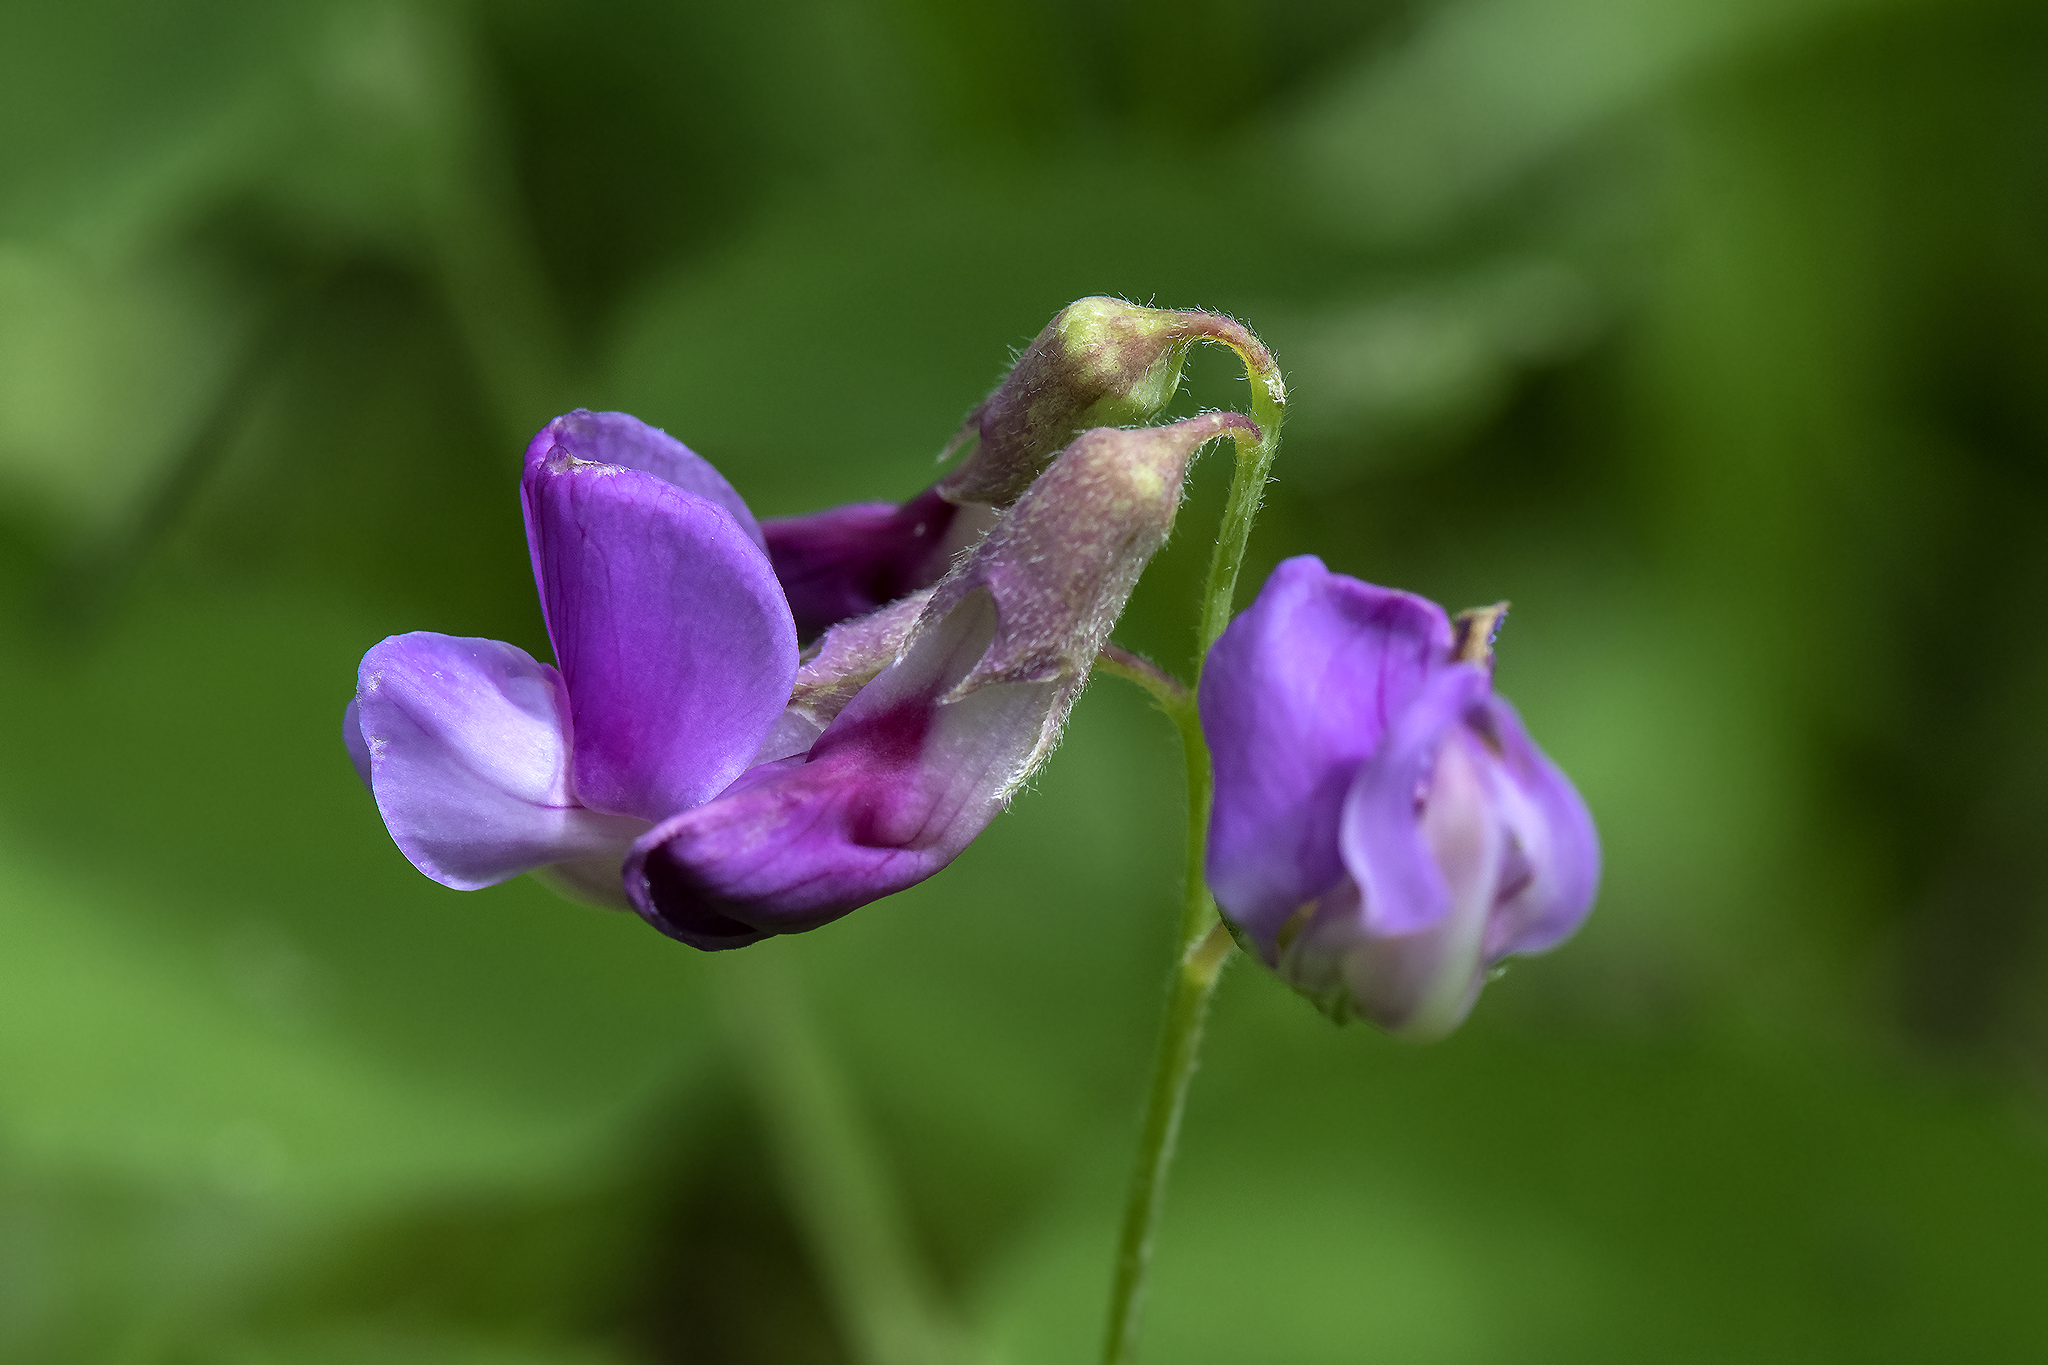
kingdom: Plantae
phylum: Tracheophyta
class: Magnoliopsida
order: Fabales
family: Fabaceae
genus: Lathyrus
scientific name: Lathyrus nevadensis
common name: Sierra nevada peavine
